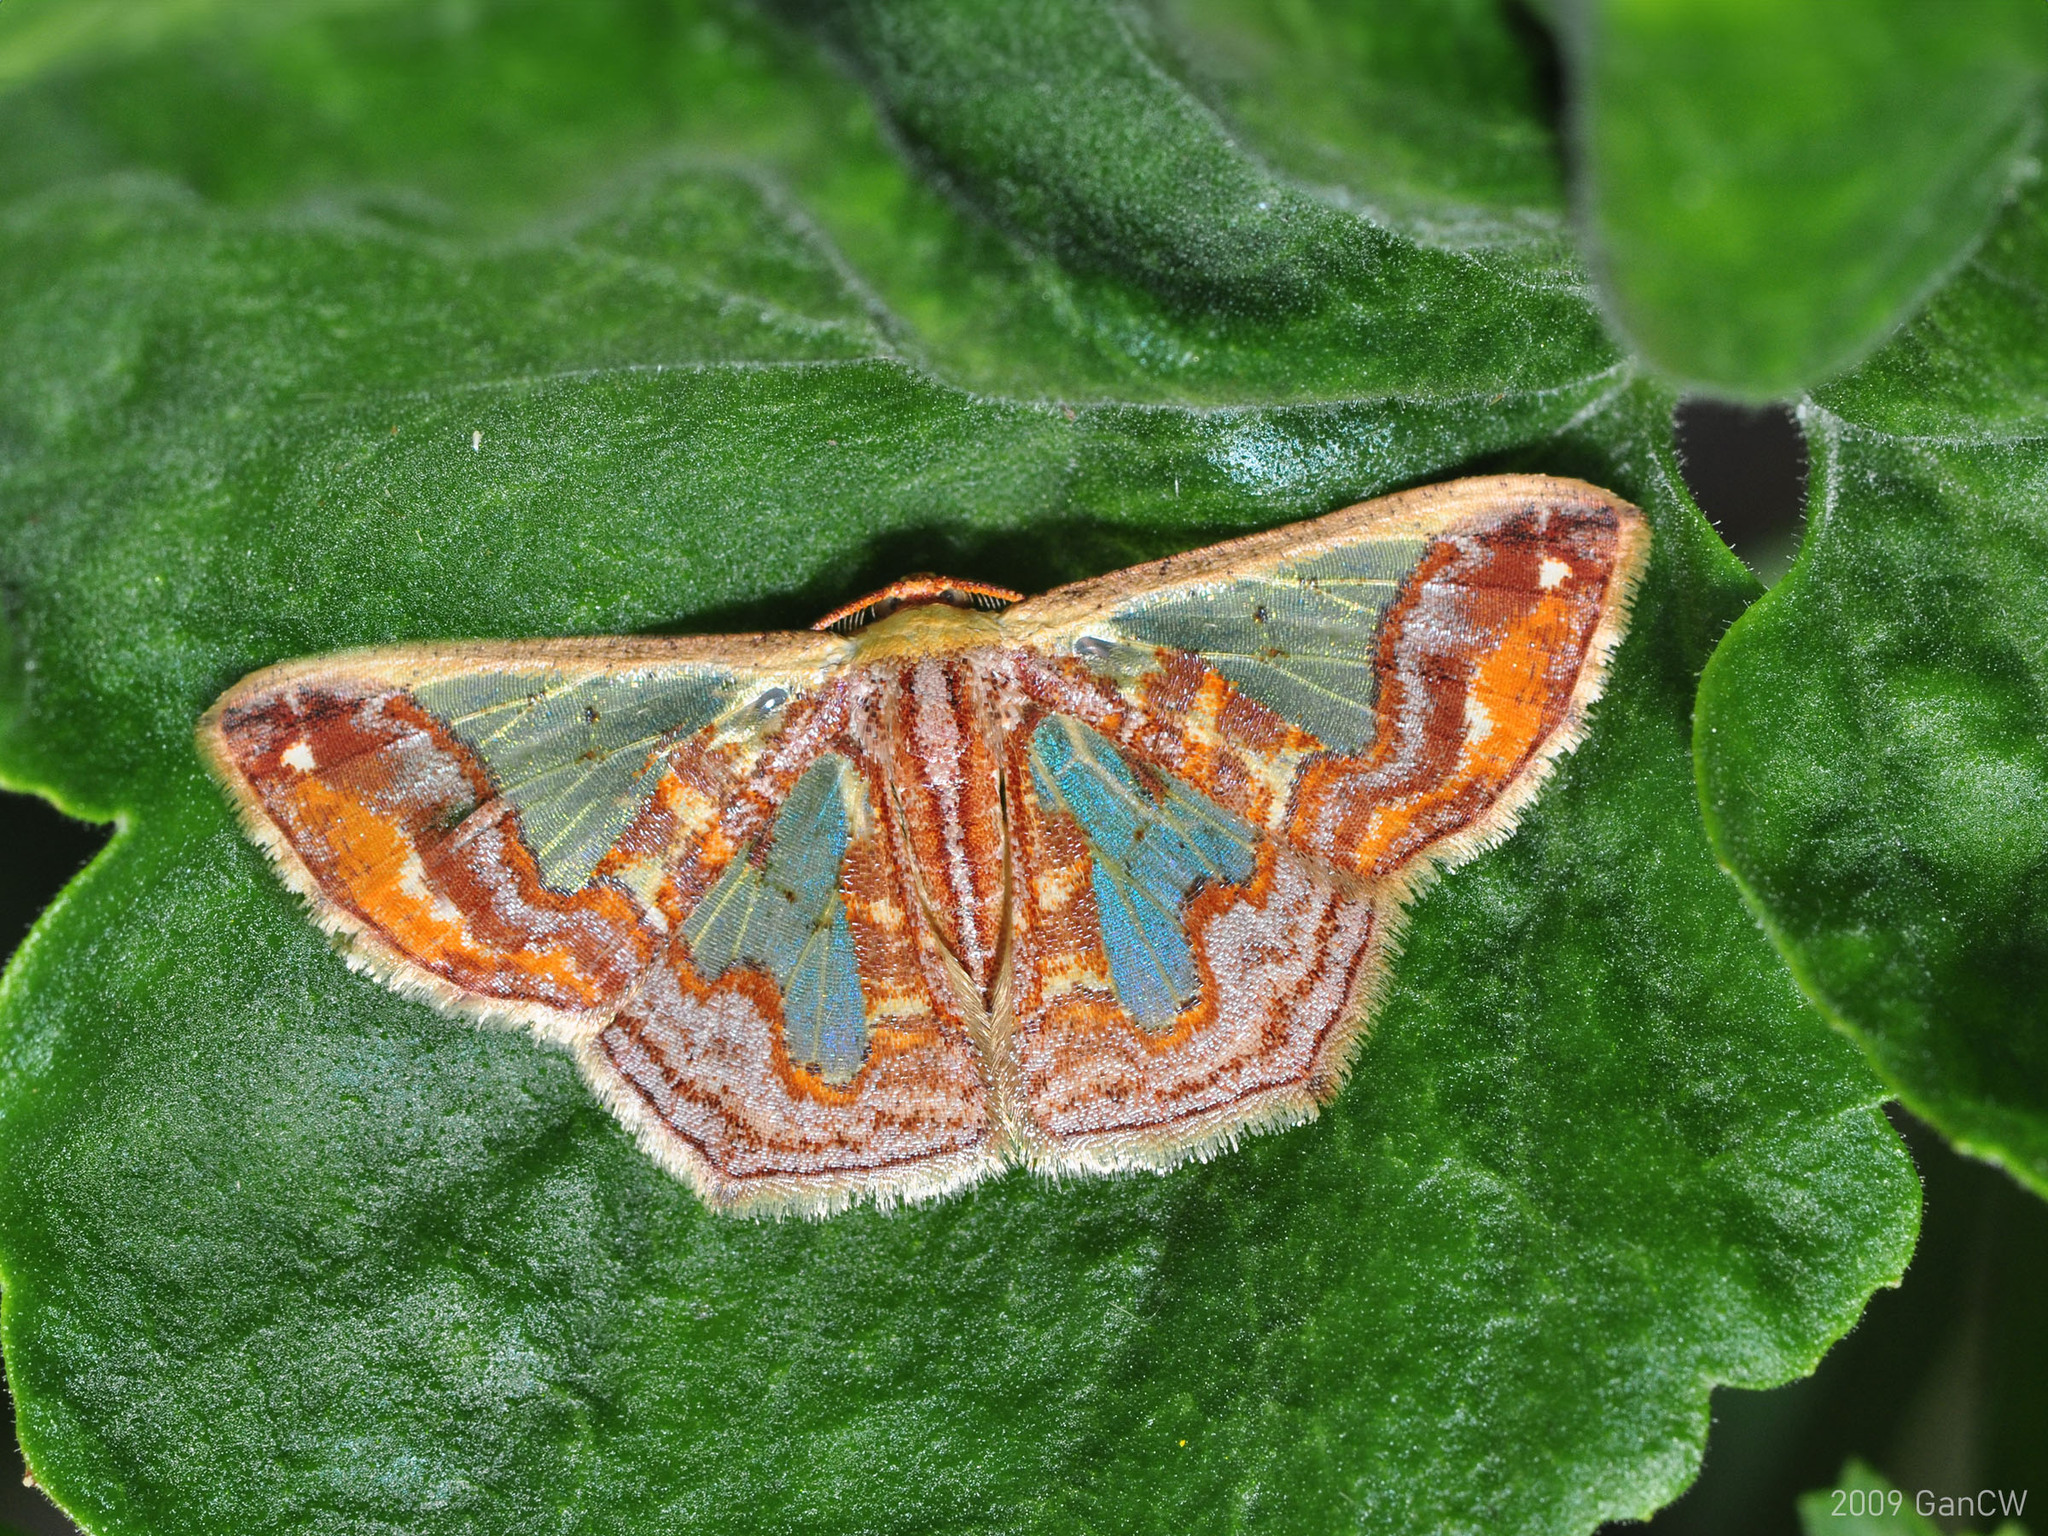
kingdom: Animalia
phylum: Arthropoda
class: Insecta
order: Lepidoptera
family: Geometridae
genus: Peratophyga
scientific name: Peratophyga xanthyala
